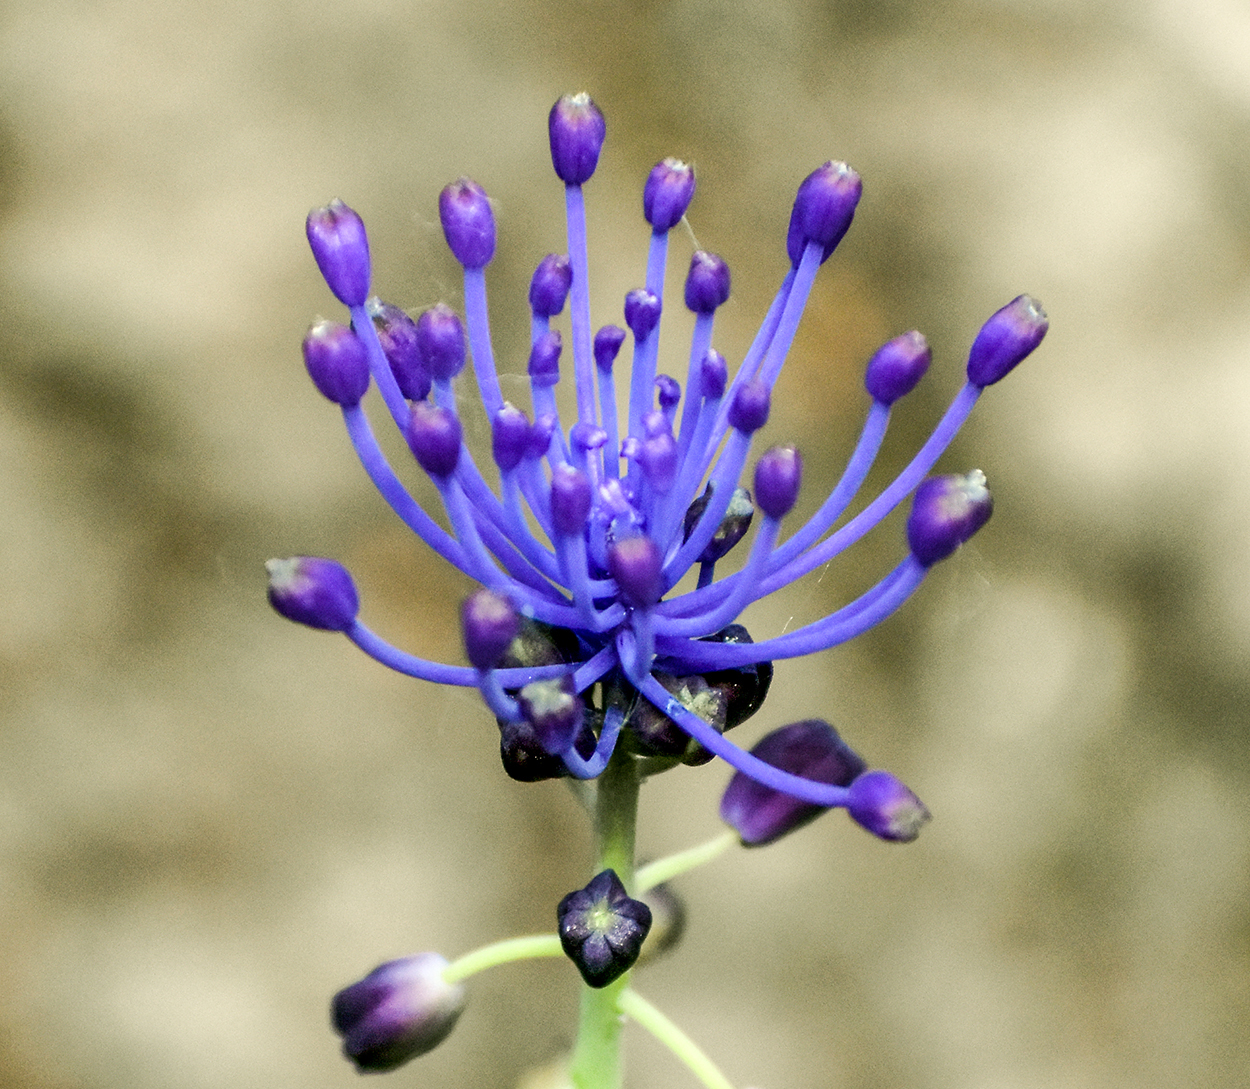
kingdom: Plantae
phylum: Tracheophyta
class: Liliopsida
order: Asparagales
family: Asparagaceae
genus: Muscari
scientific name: Muscari comosum
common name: Tassel hyacinth
